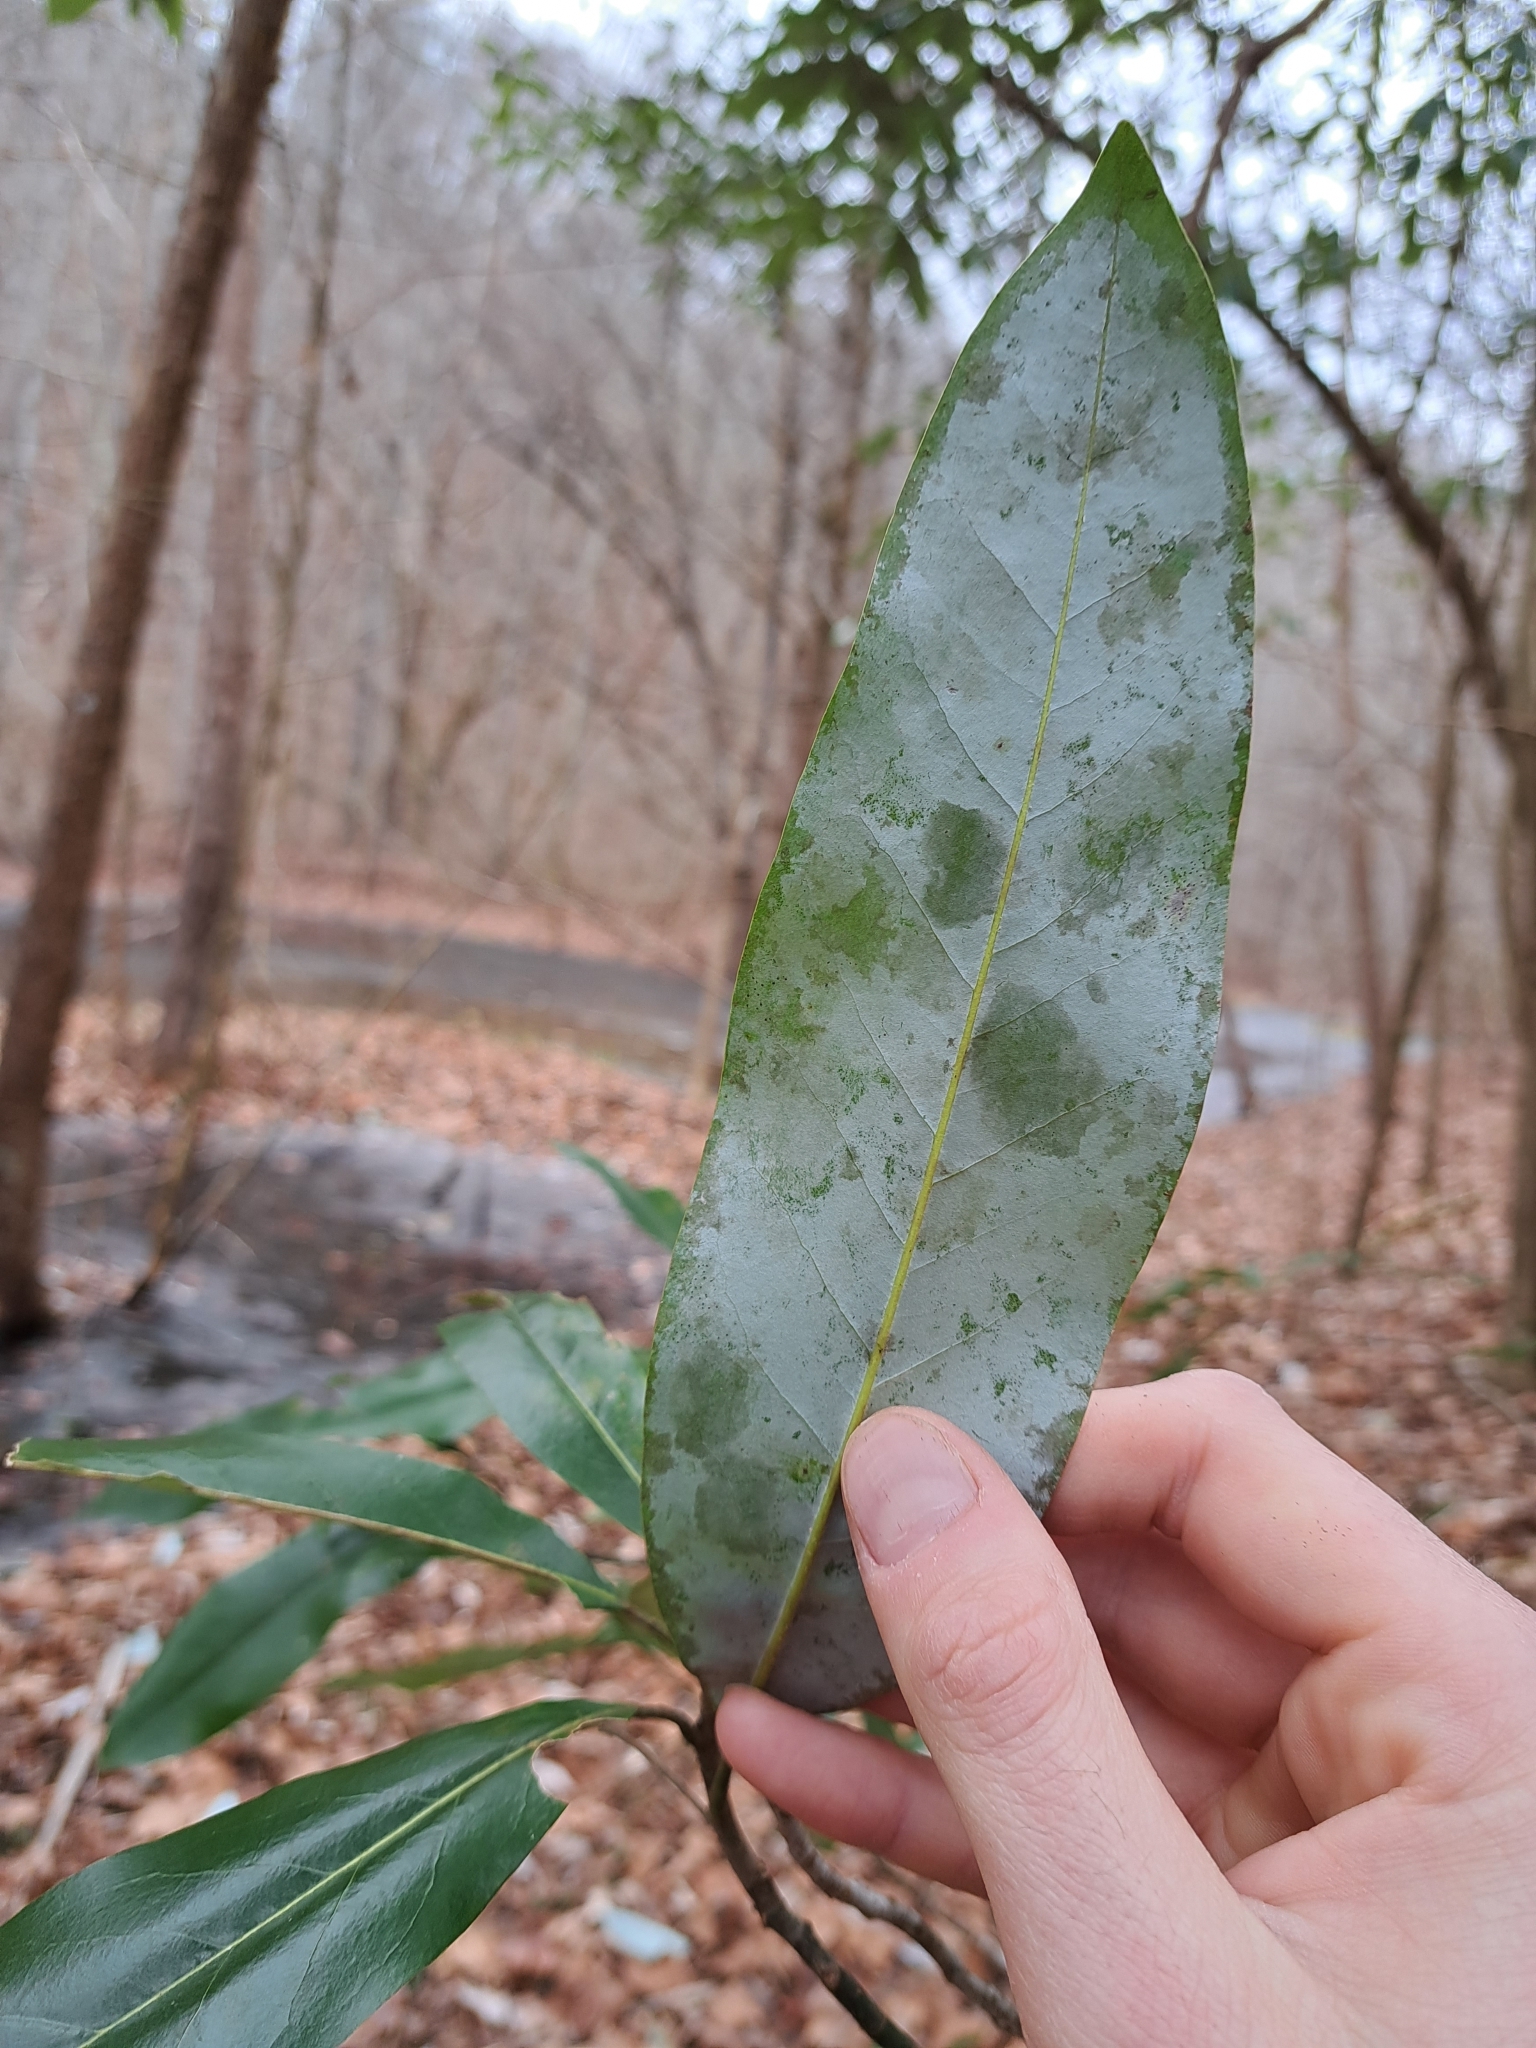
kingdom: Plantae
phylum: Tracheophyta
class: Magnoliopsida
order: Magnoliales
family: Magnoliaceae
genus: Magnolia
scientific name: Magnolia virginiana
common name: Swamp bay
